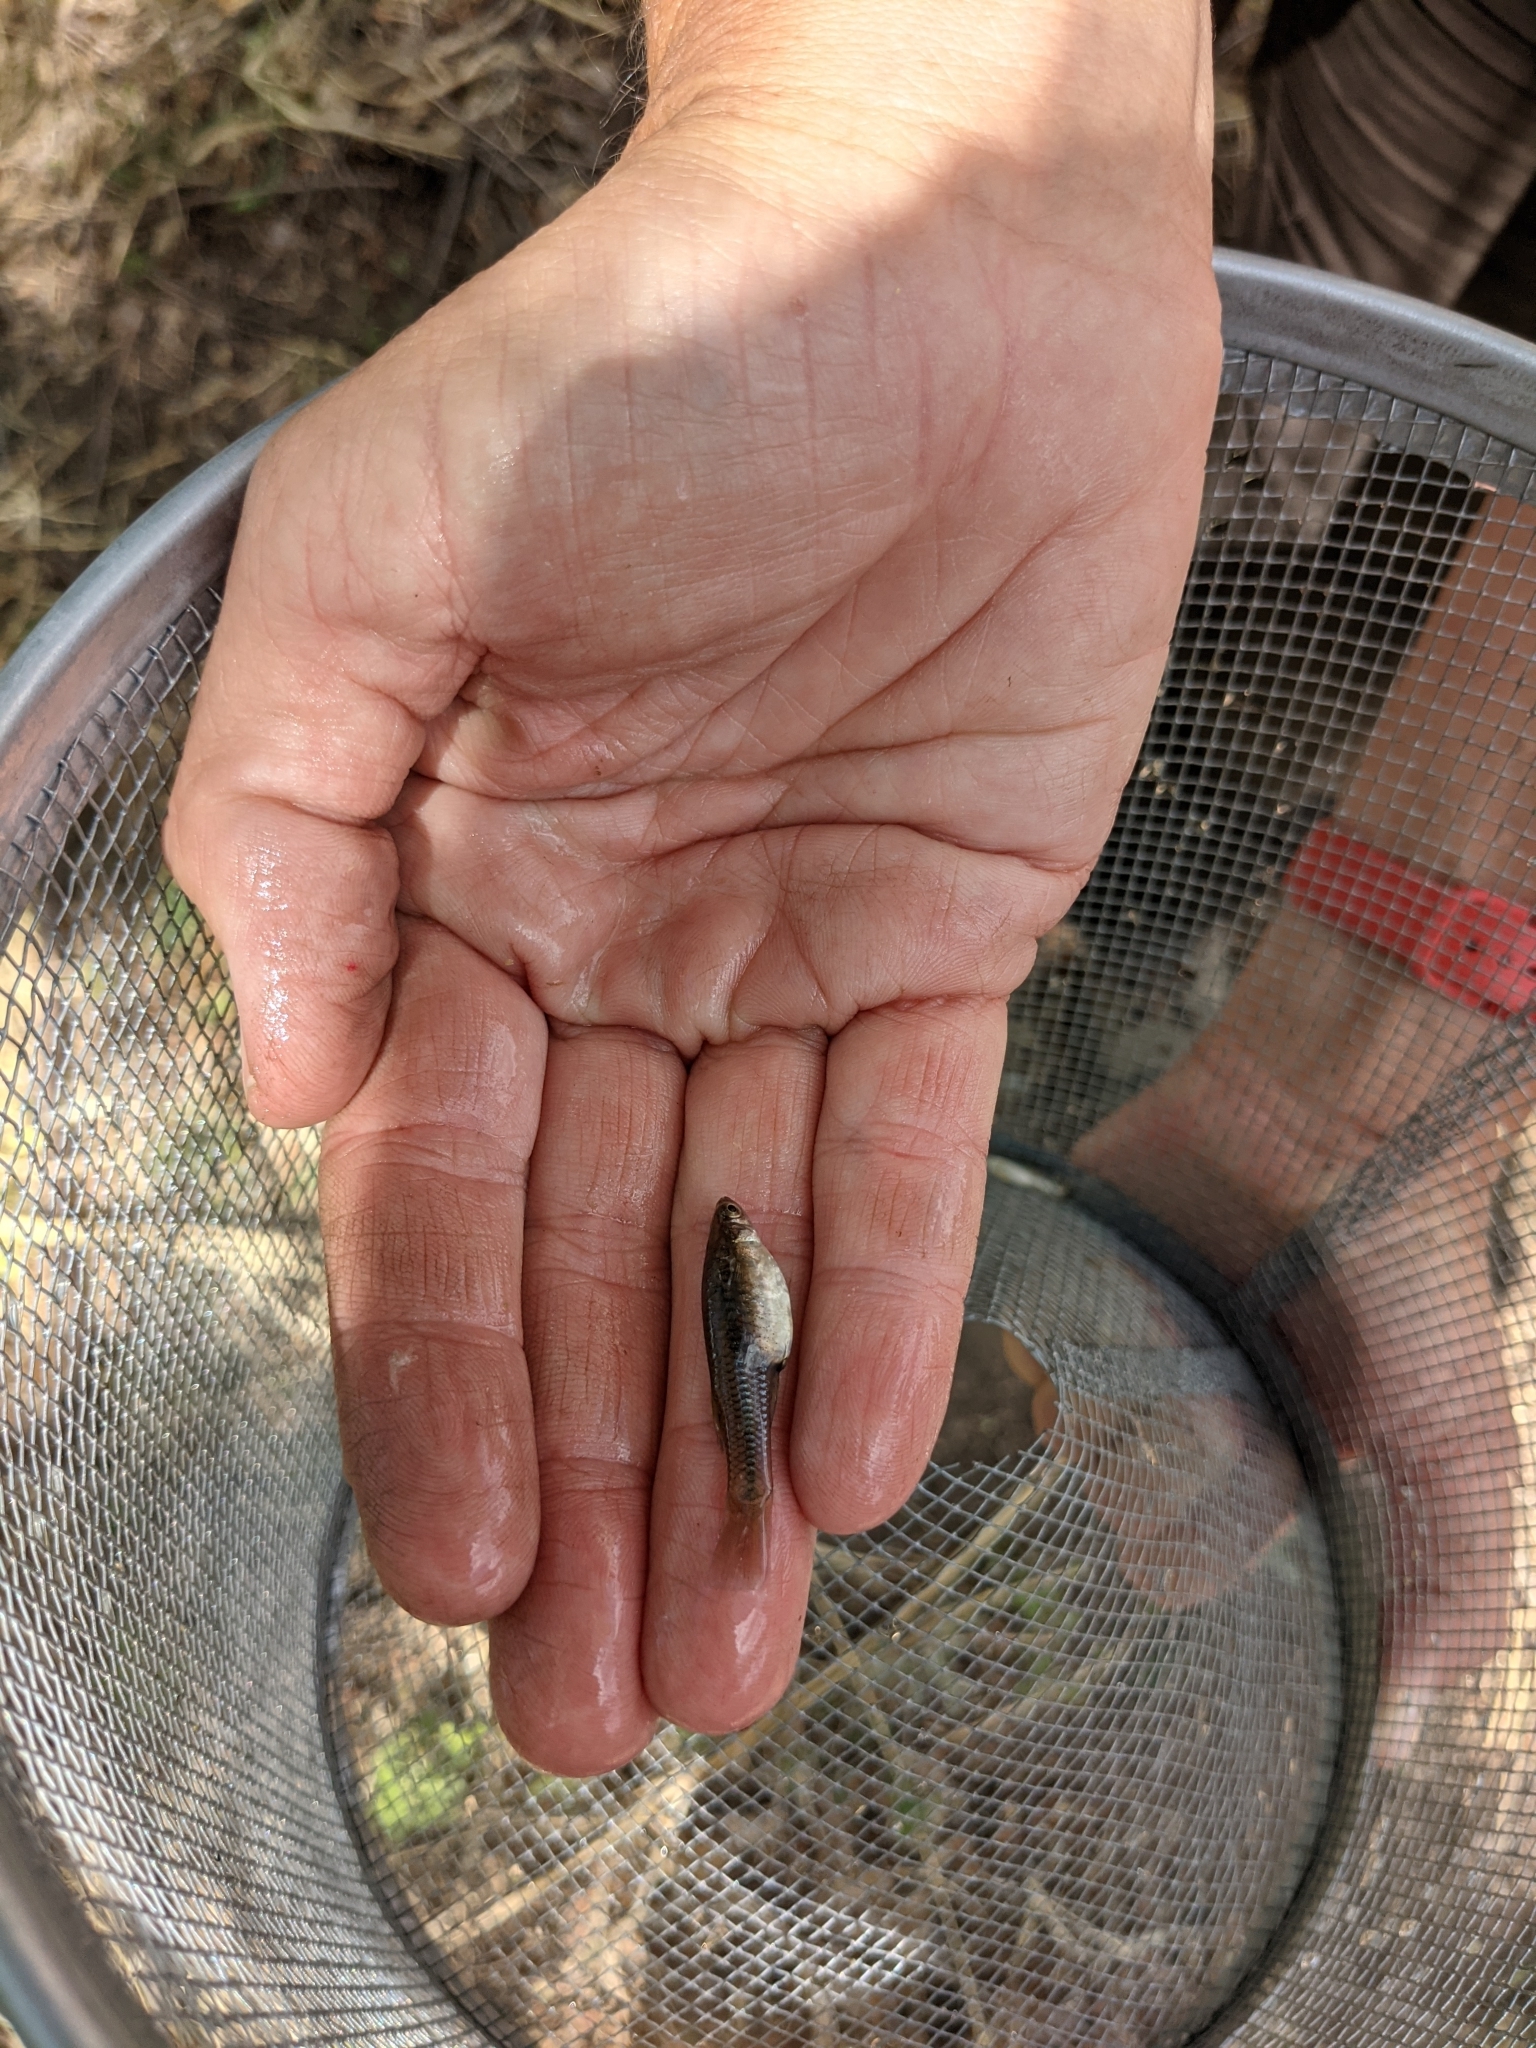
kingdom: Animalia
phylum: Chordata
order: Cyprinodontiformes
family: Poeciliidae
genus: Poeciliopsis
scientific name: Poeciliopsis sonoriensis
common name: Sonora topminnow
